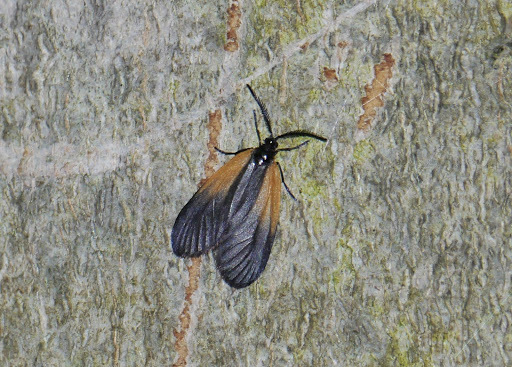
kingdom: Animalia
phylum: Arthropoda
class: Insecta
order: Lepidoptera
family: Zygaenidae
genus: Malthaca
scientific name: Malthaca dimidiata
